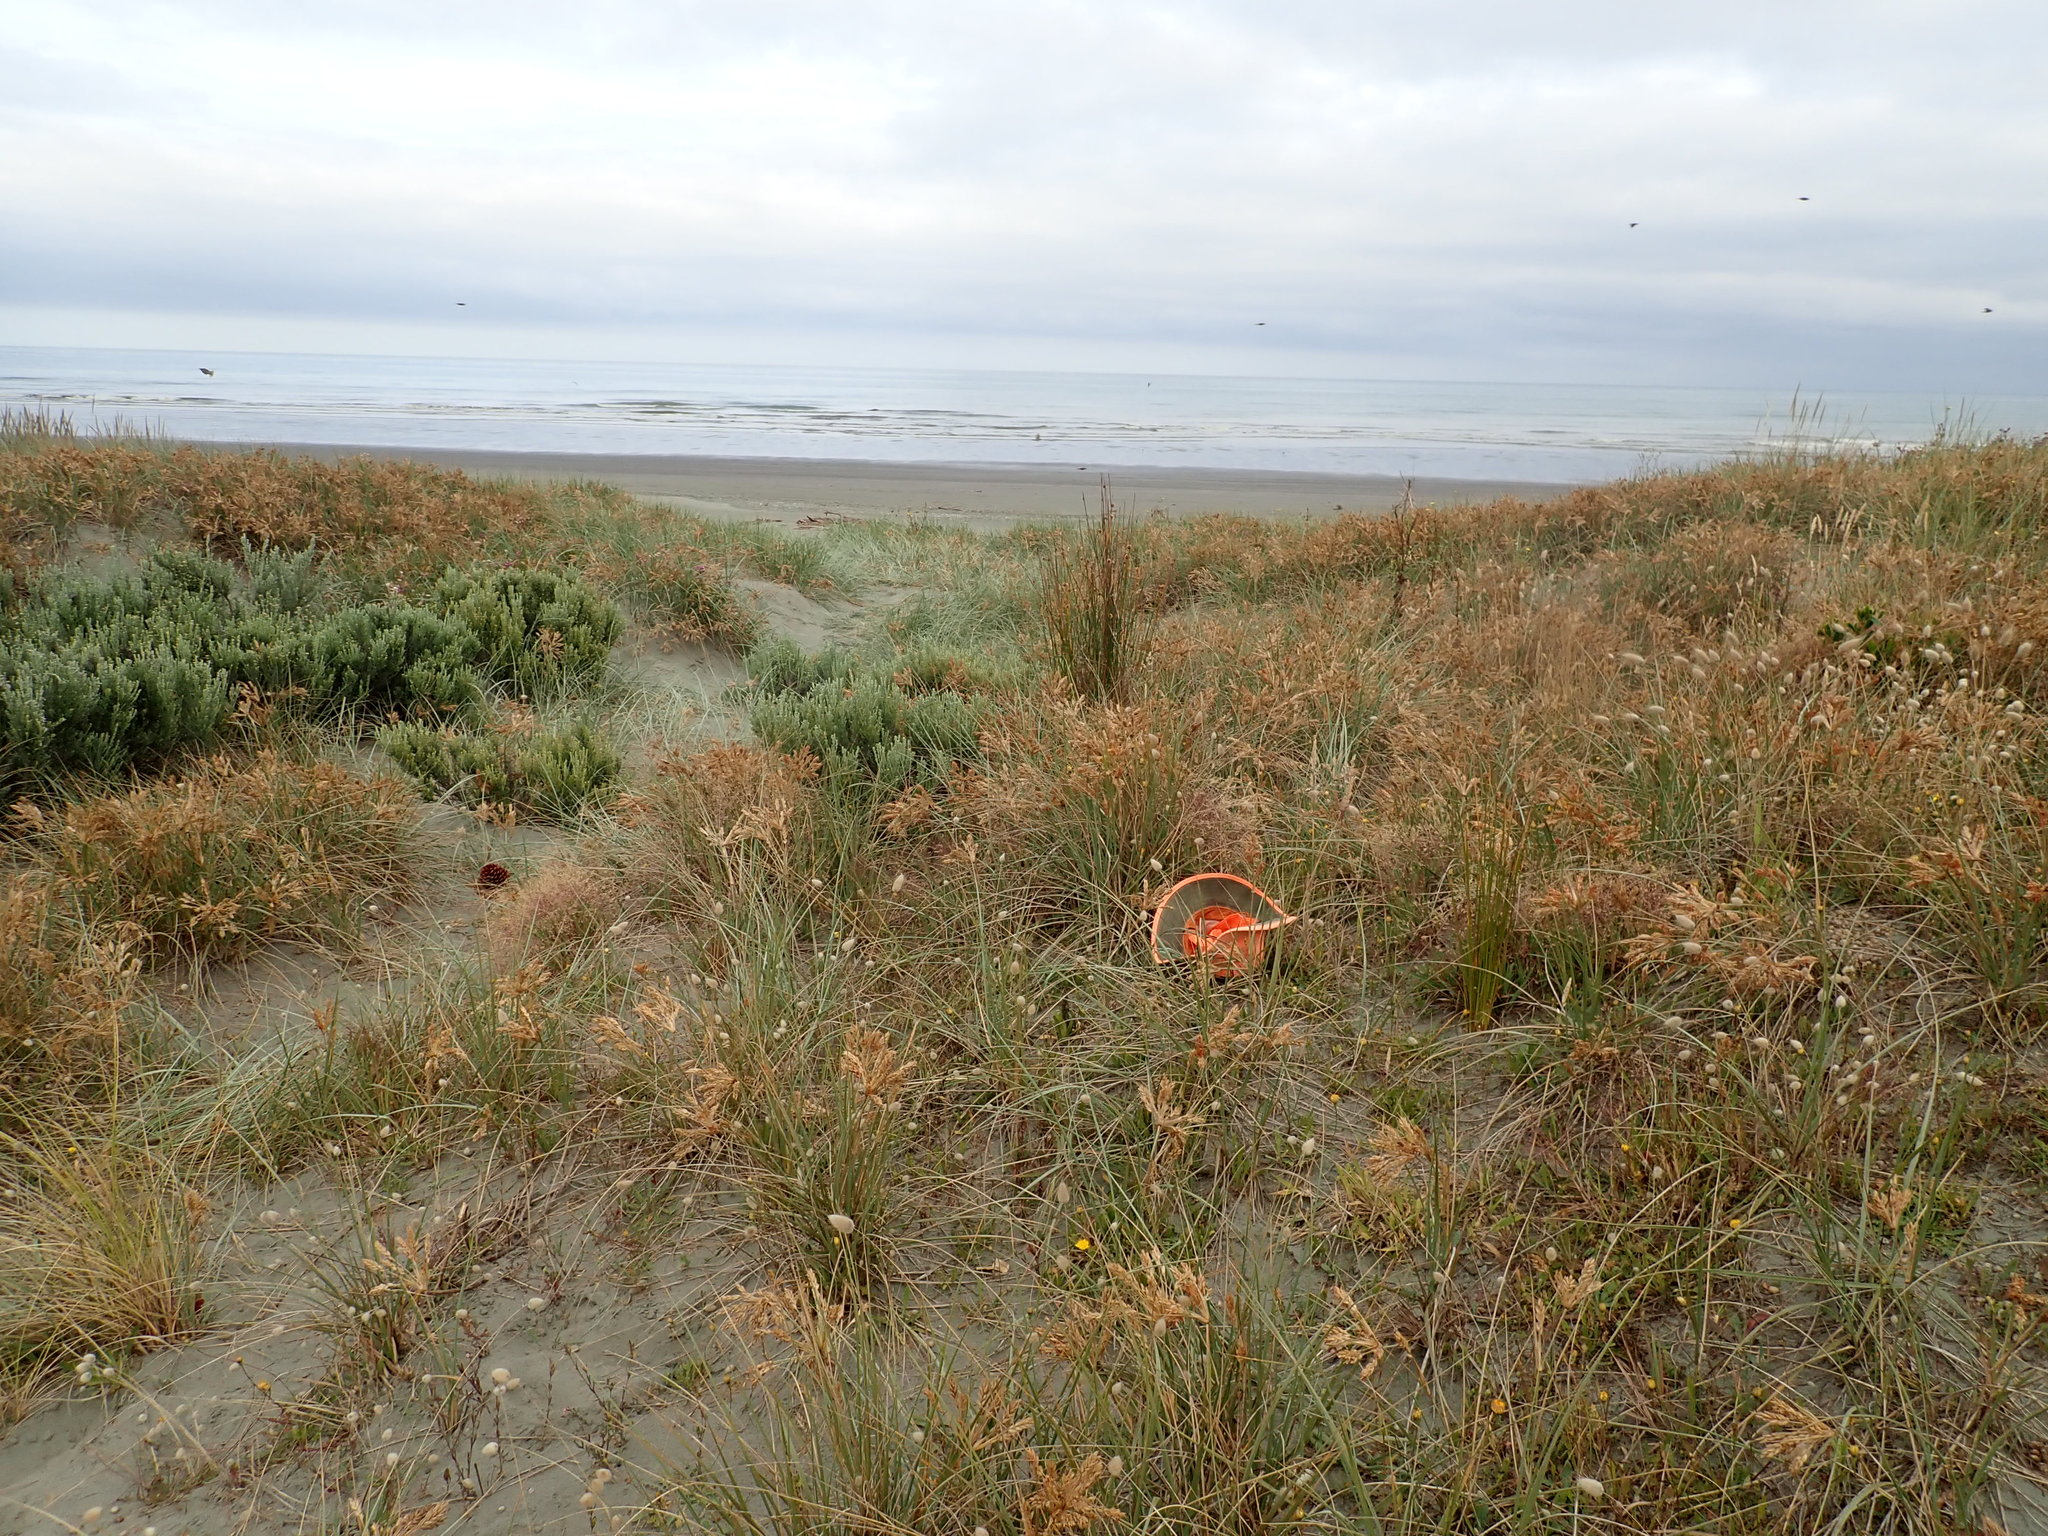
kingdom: Plantae
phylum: Tracheophyta
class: Liliopsida
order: Poales
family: Poaceae
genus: Spinifex
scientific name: Spinifex sericeus
